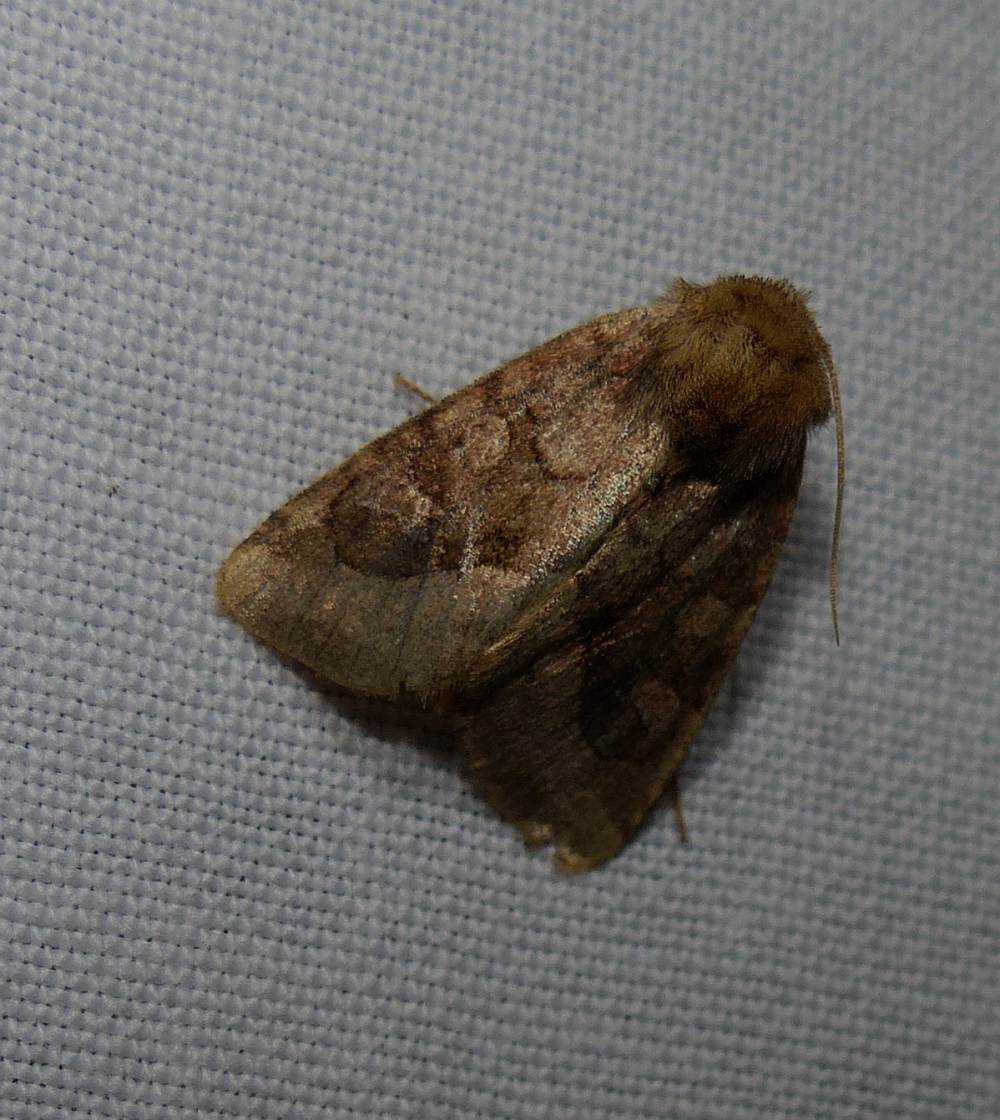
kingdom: Animalia
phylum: Arthropoda
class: Insecta
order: Lepidoptera
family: Noctuidae
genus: Lacinipolia
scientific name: Lacinipolia lorea
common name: Bridled arches moth
